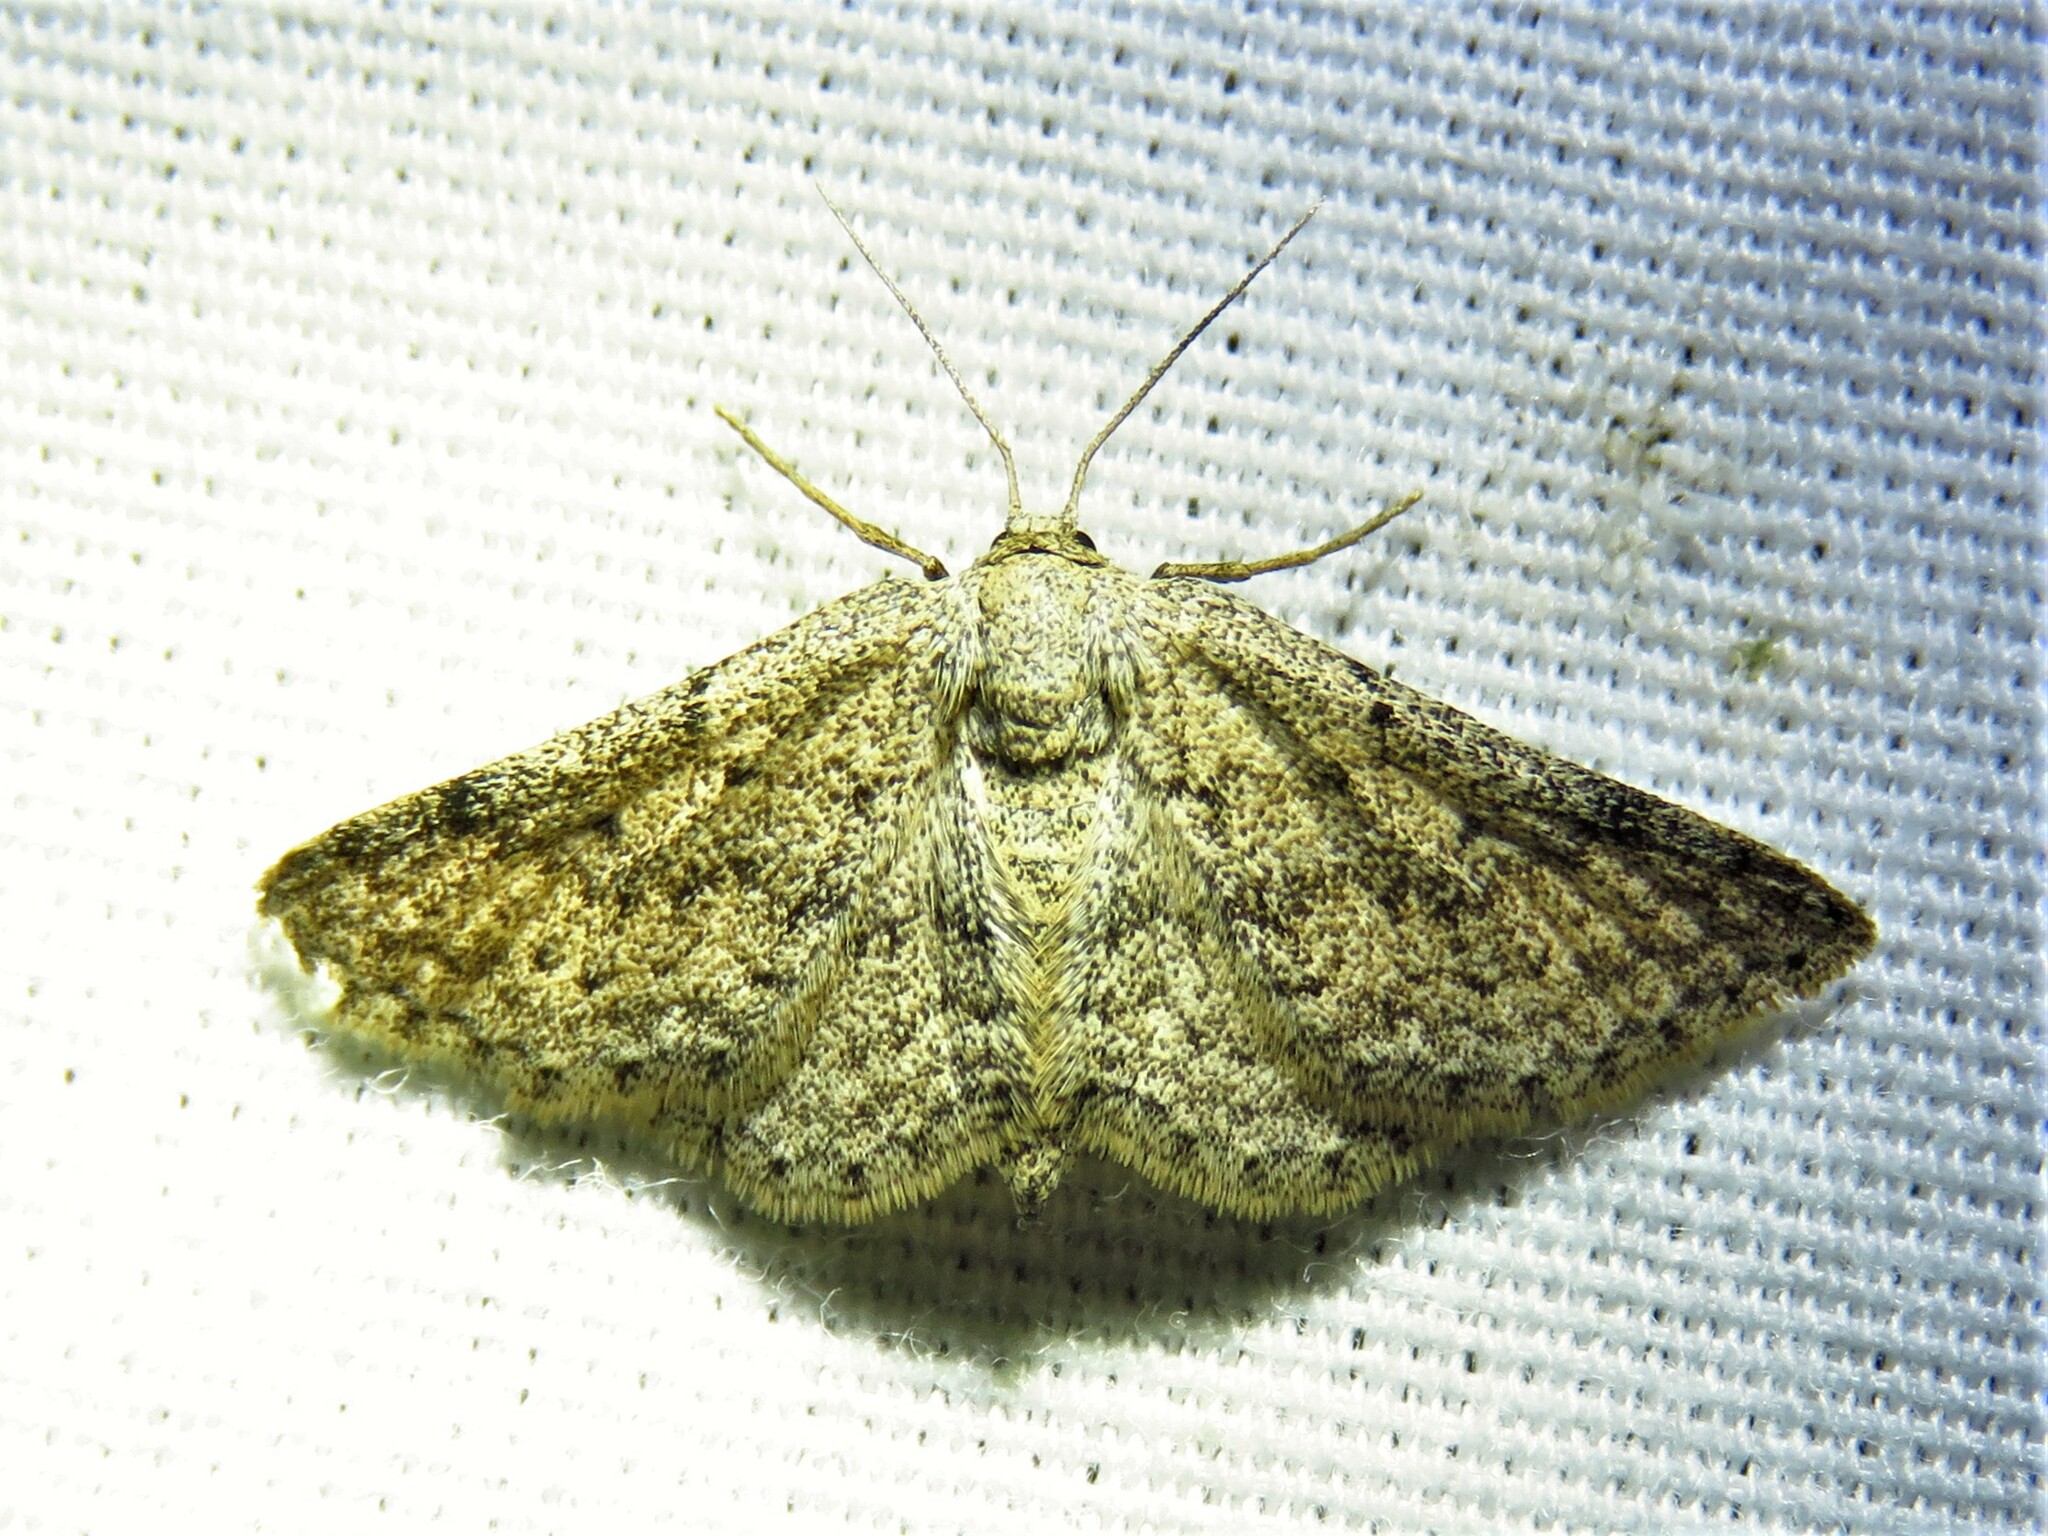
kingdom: Animalia
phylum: Arthropoda
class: Insecta
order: Lepidoptera
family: Geometridae
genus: Lobocleta
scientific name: Lobocleta ossularia
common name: Drab brown wave
